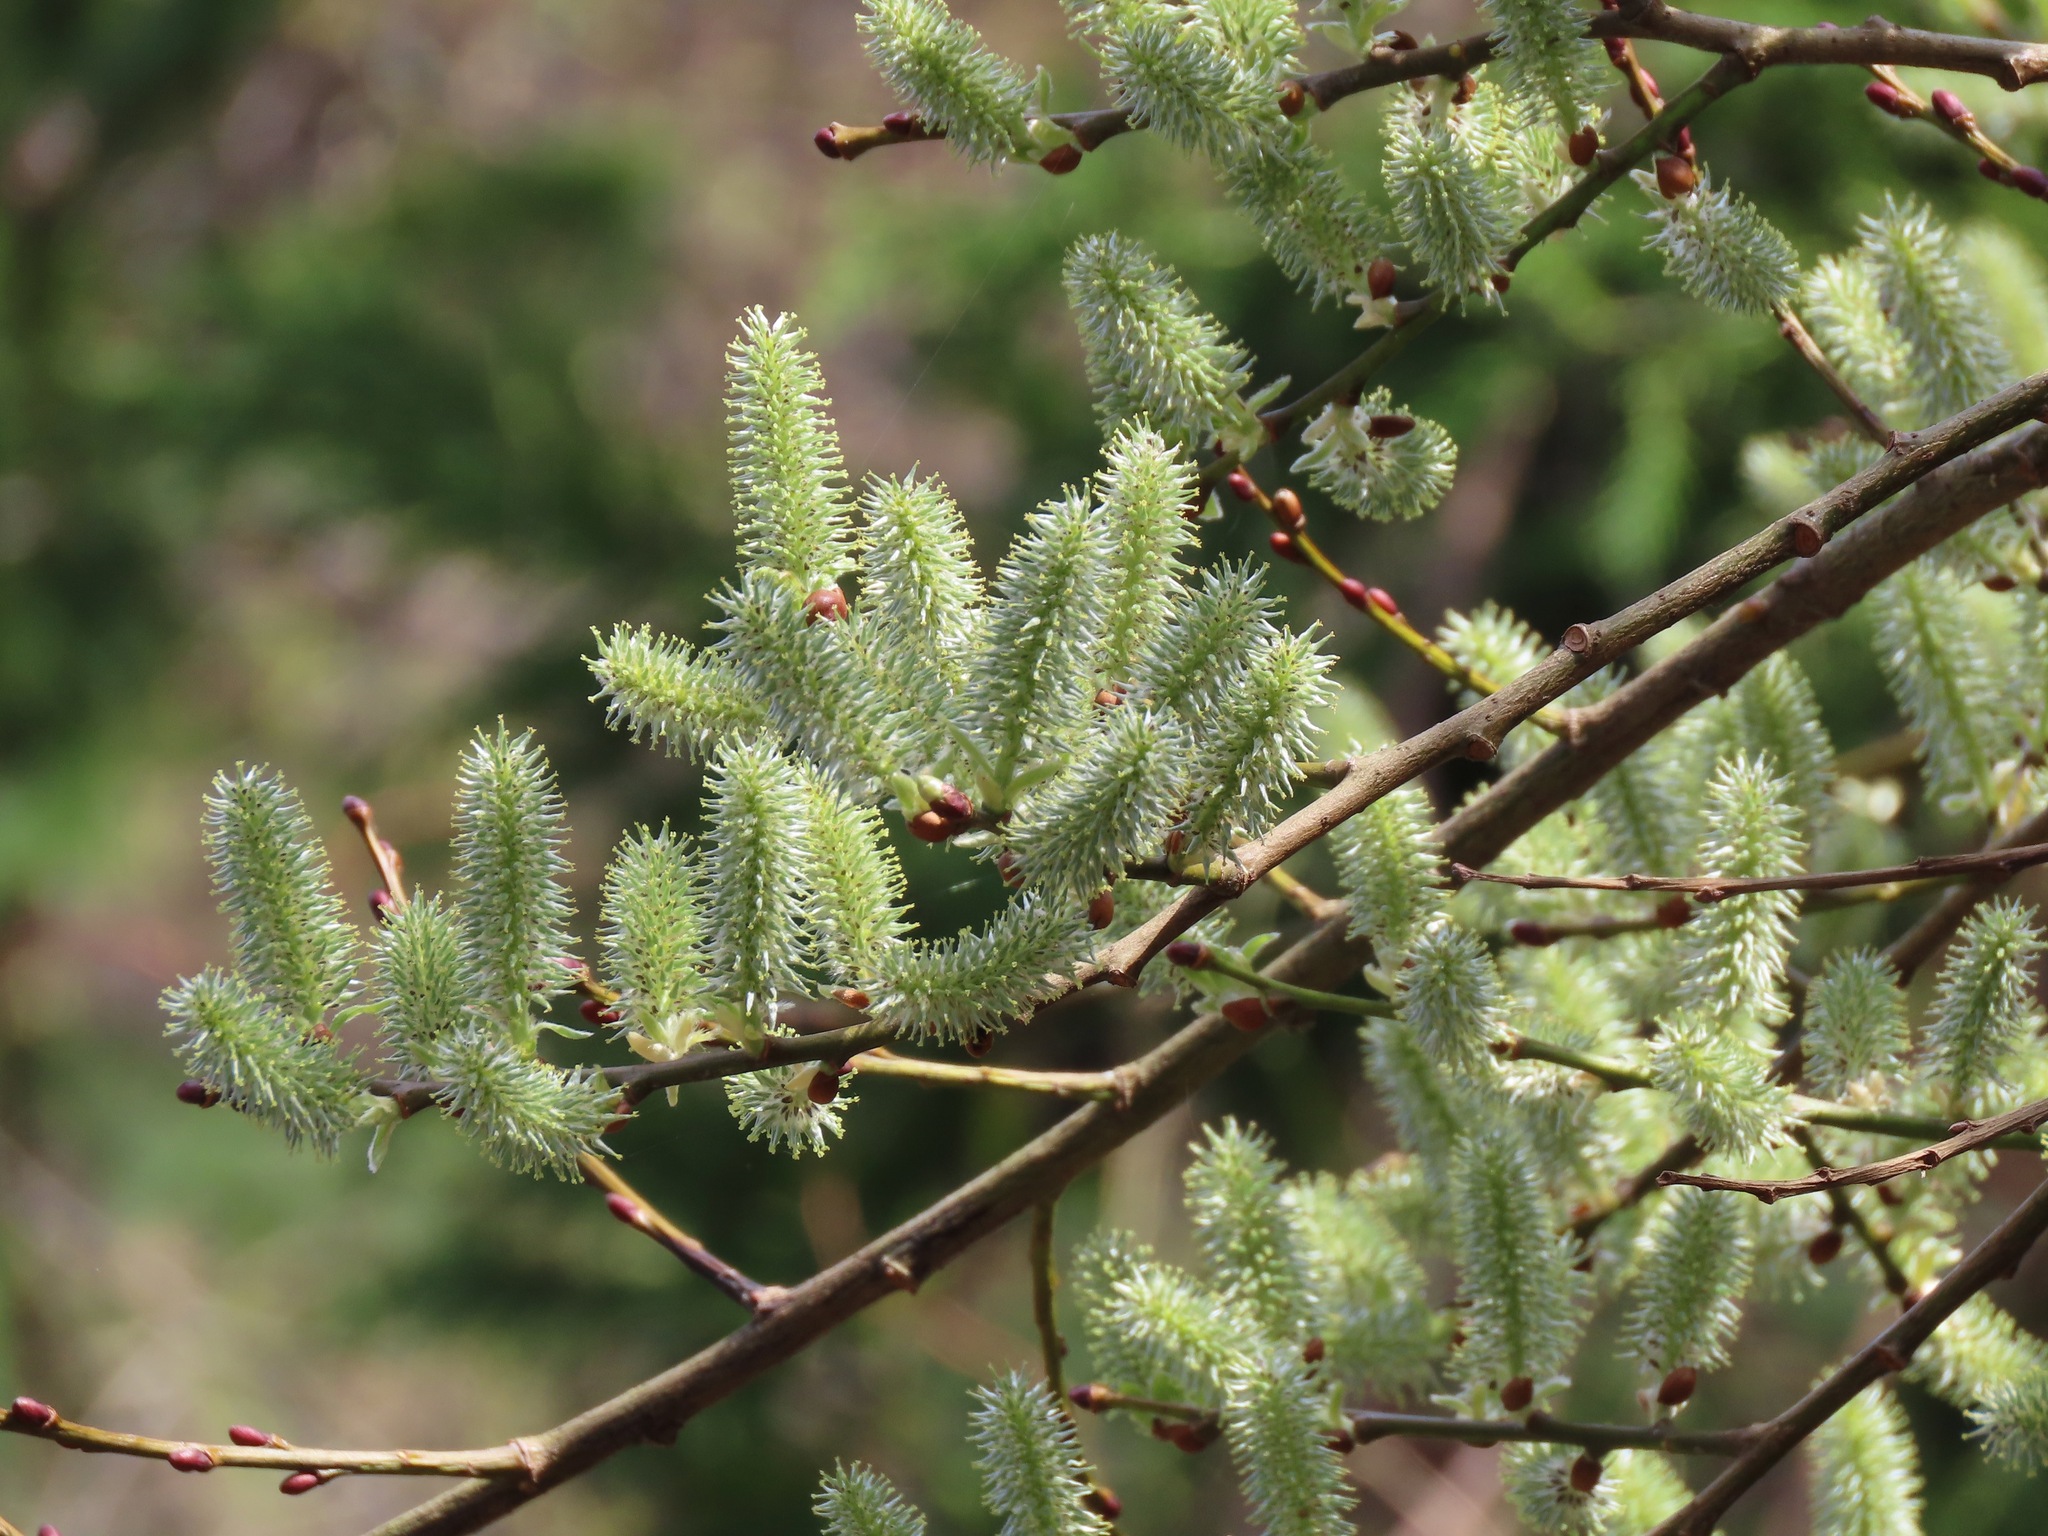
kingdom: Plantae
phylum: Tracheophyta
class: Magnoliopsida
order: Malpighiales
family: Salicaceae
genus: Salix
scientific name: Salix caprea
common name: Goat willow
